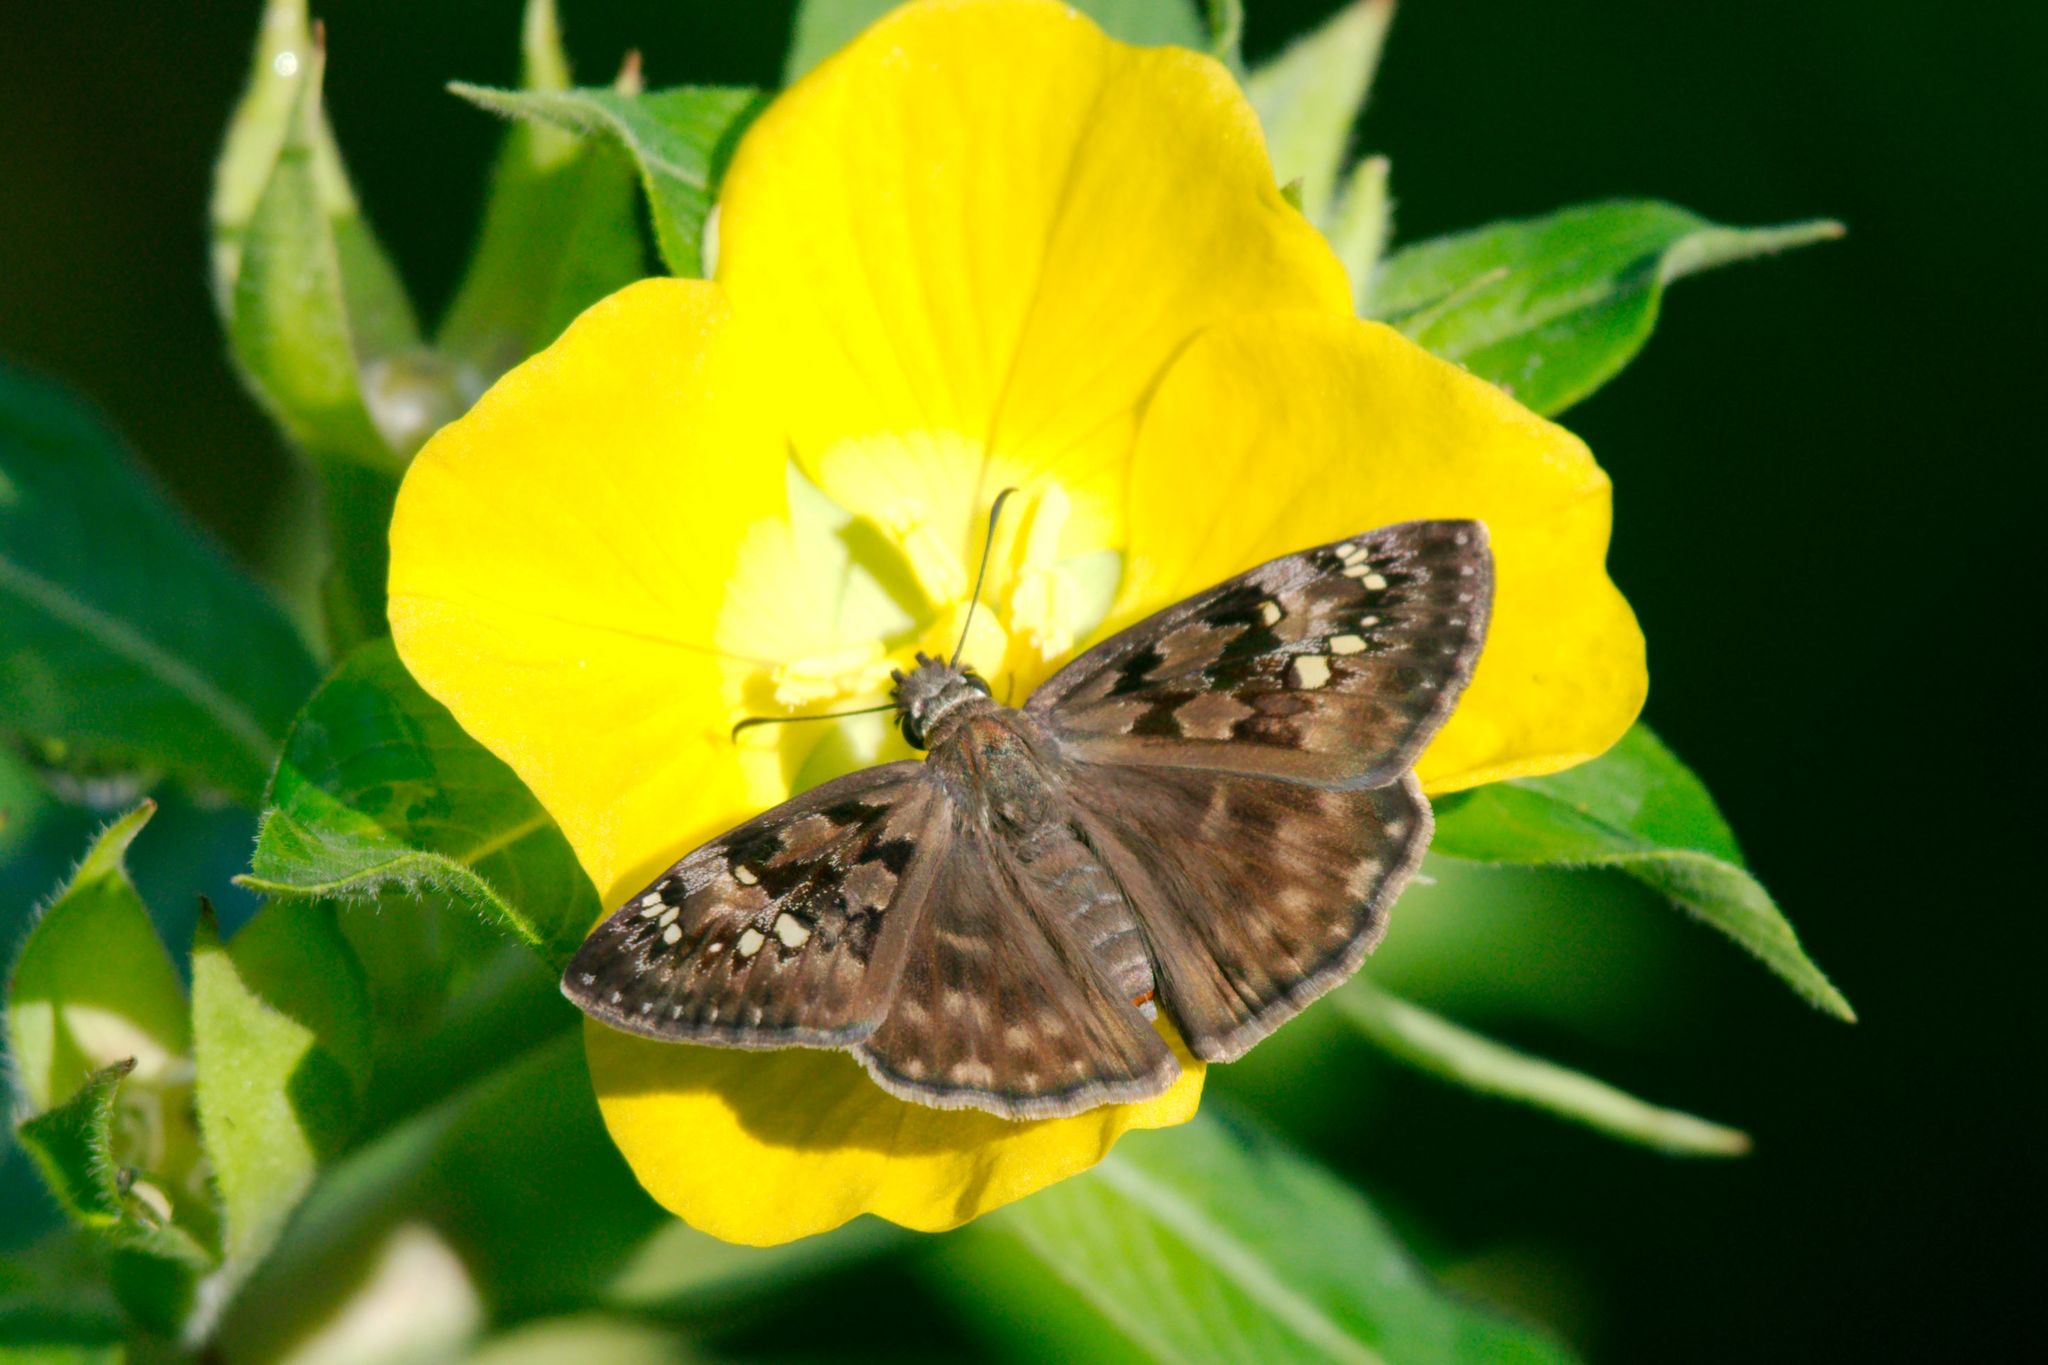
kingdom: Animalia
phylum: Arthropoda
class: Insecta
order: Lepidoptera
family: Hesperiidae
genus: Erynnis
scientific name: Erynnis horatius
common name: Horace's duskywing
